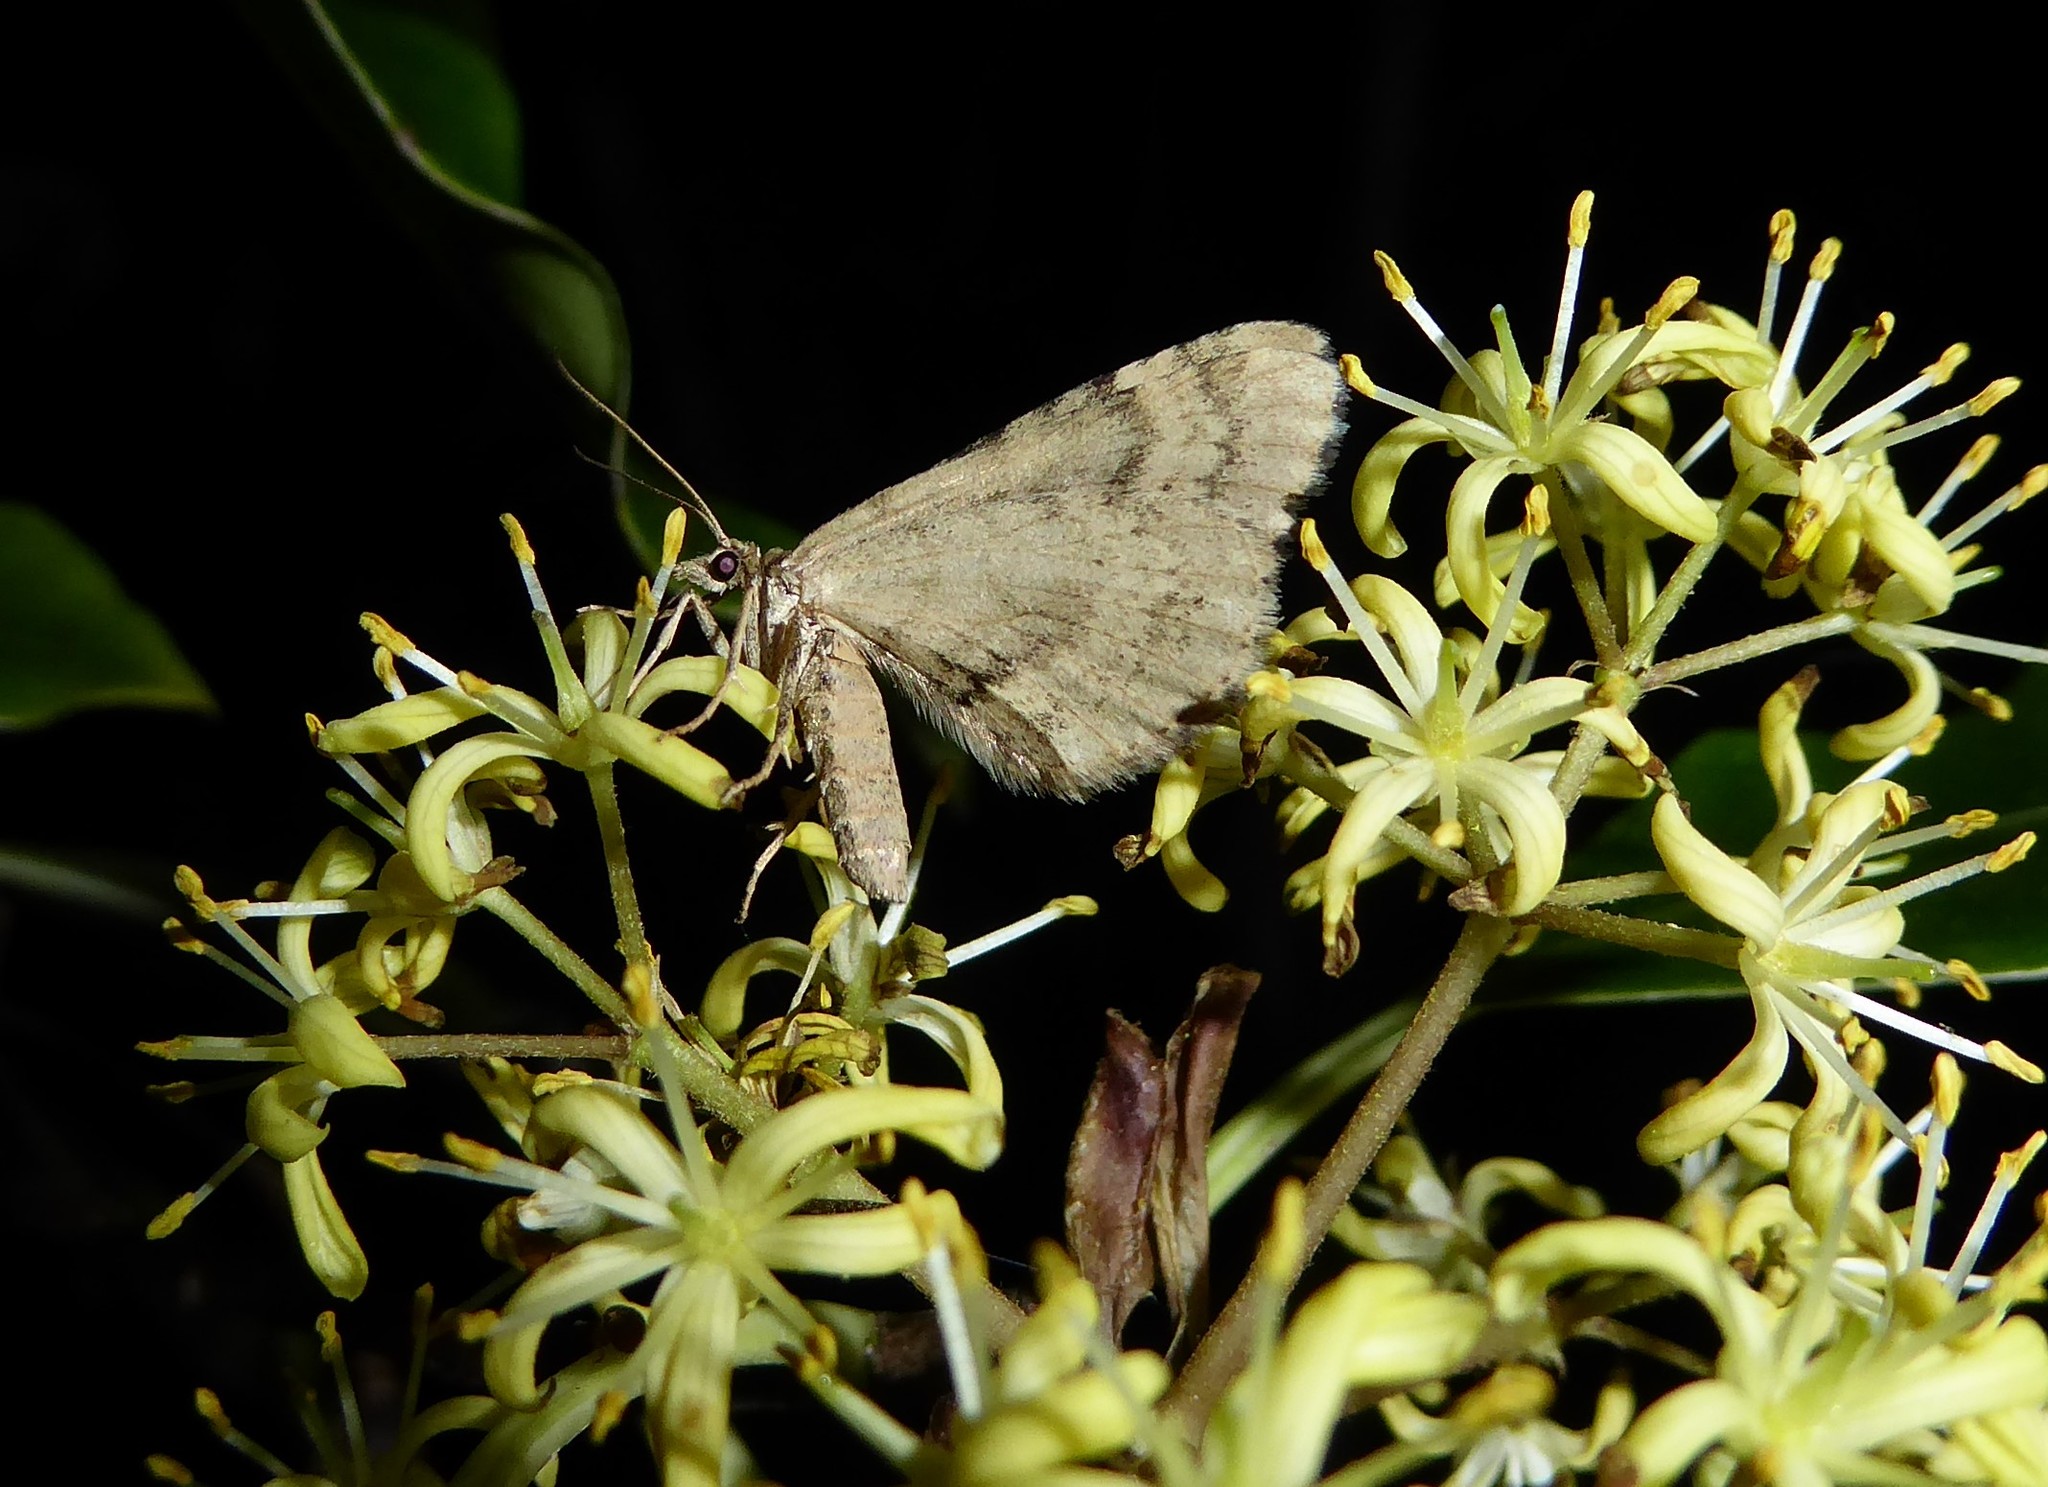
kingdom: Animalia
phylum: Arthropoda
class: Insecta
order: Lepidoptera
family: Geometridae
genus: Asaphodes
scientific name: Asaphodes aegrota
